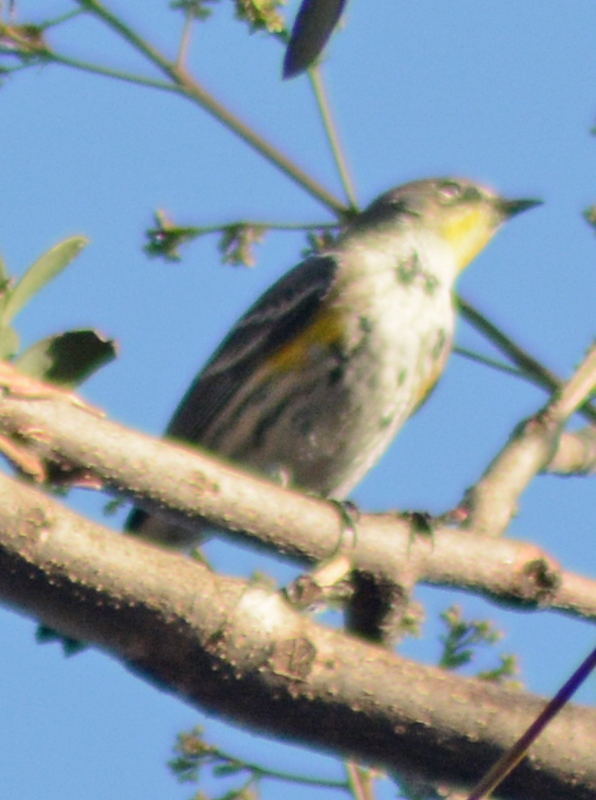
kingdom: Animalia
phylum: Chordata
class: Aves
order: Passeriformes
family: Parulidae
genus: Setophaga
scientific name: Setophaga coronata
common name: Myrtle warbler
